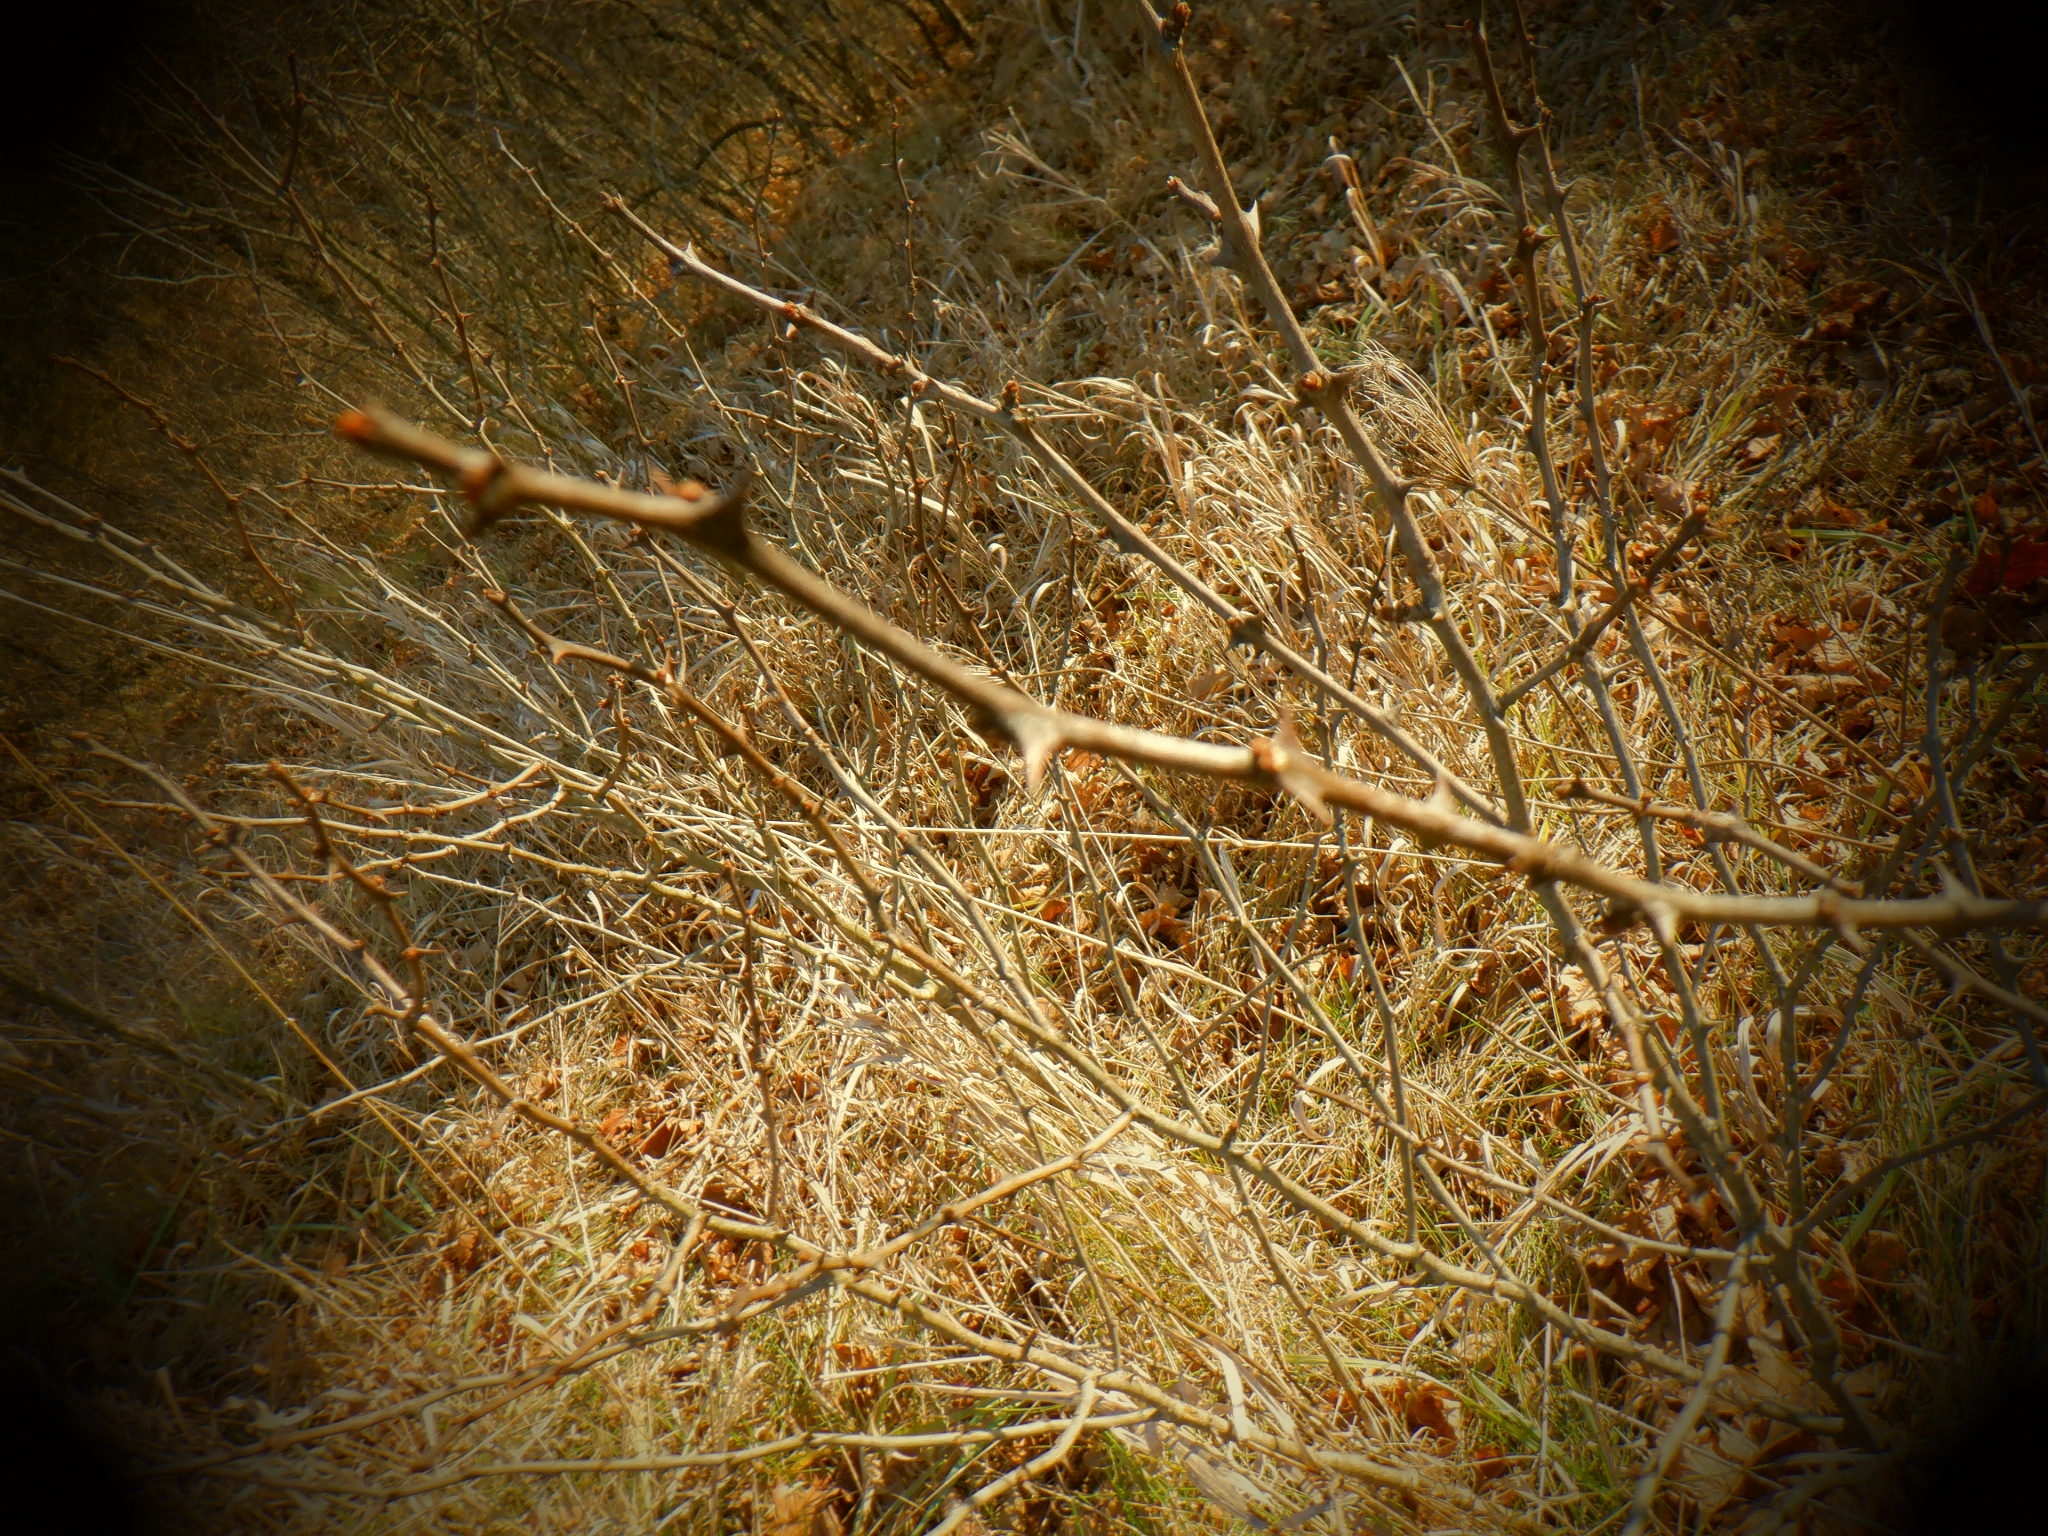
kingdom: Plantae
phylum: Tracheophyta
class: Magnoliopsida
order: Sapindales
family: Rutaceae
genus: Zanthoxylum
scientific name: Zanthoxylum americanum
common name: Northern prickly-ash
